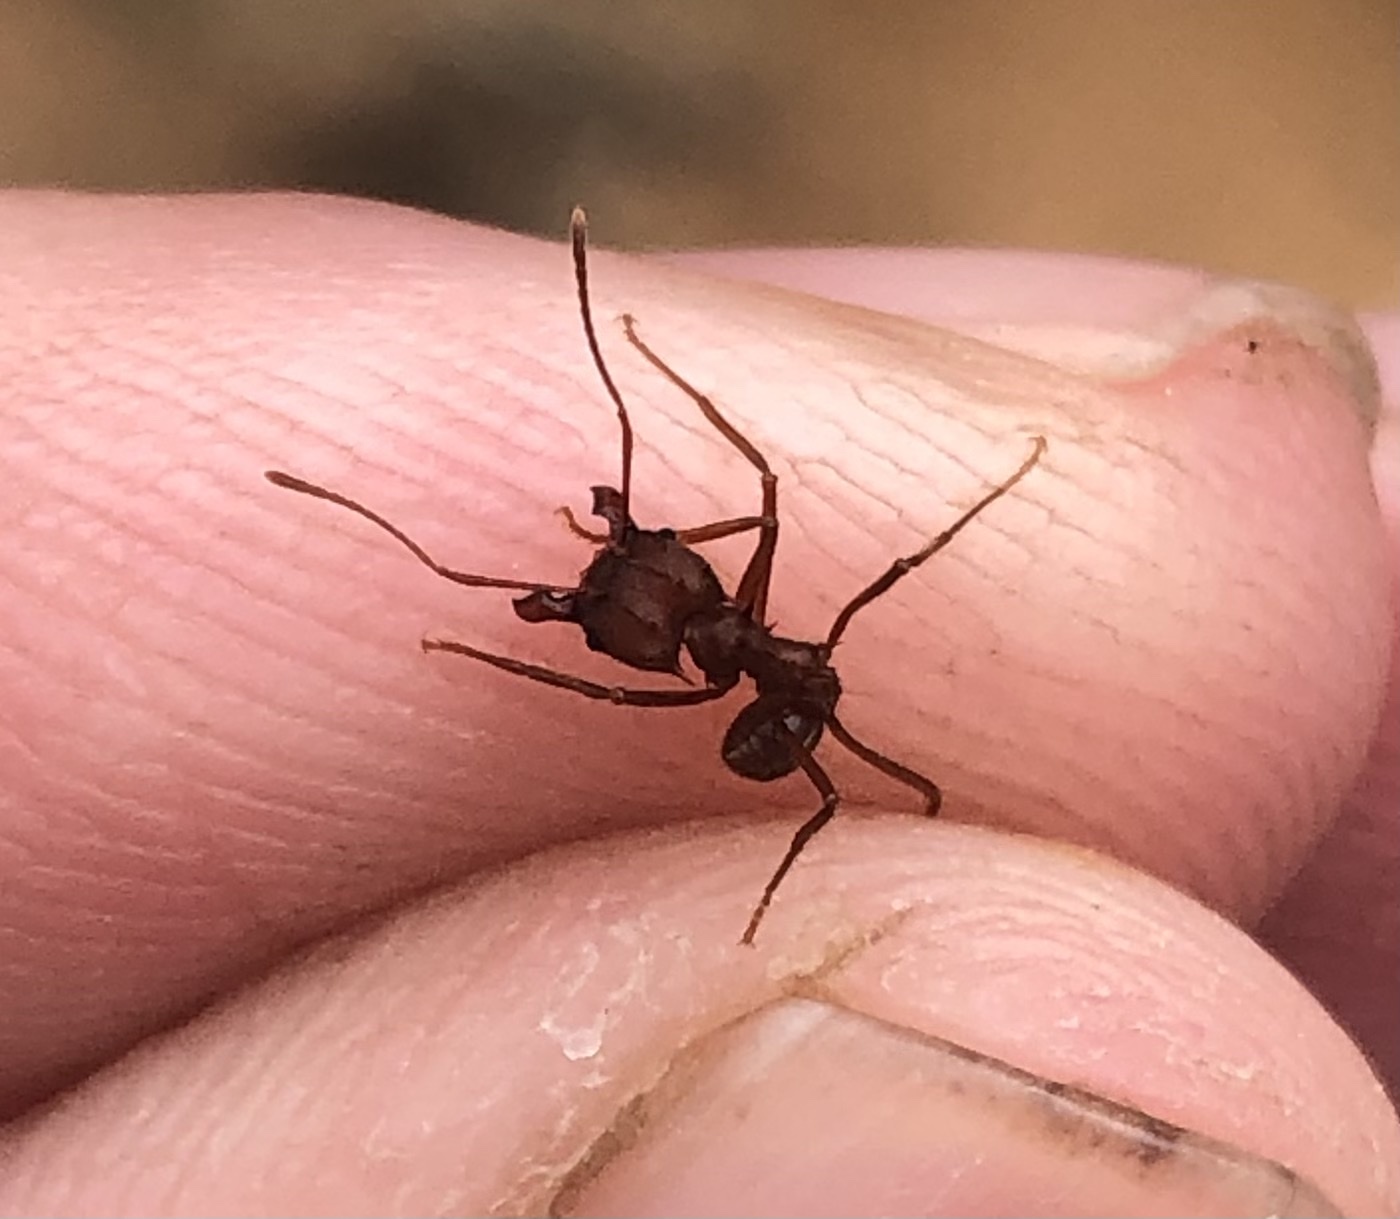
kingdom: Animalia
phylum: Arthropoda
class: Insecta
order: Hymenoptera
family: Formicidae
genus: Atta
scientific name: Atta texana
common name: Texas leafcutting ant
